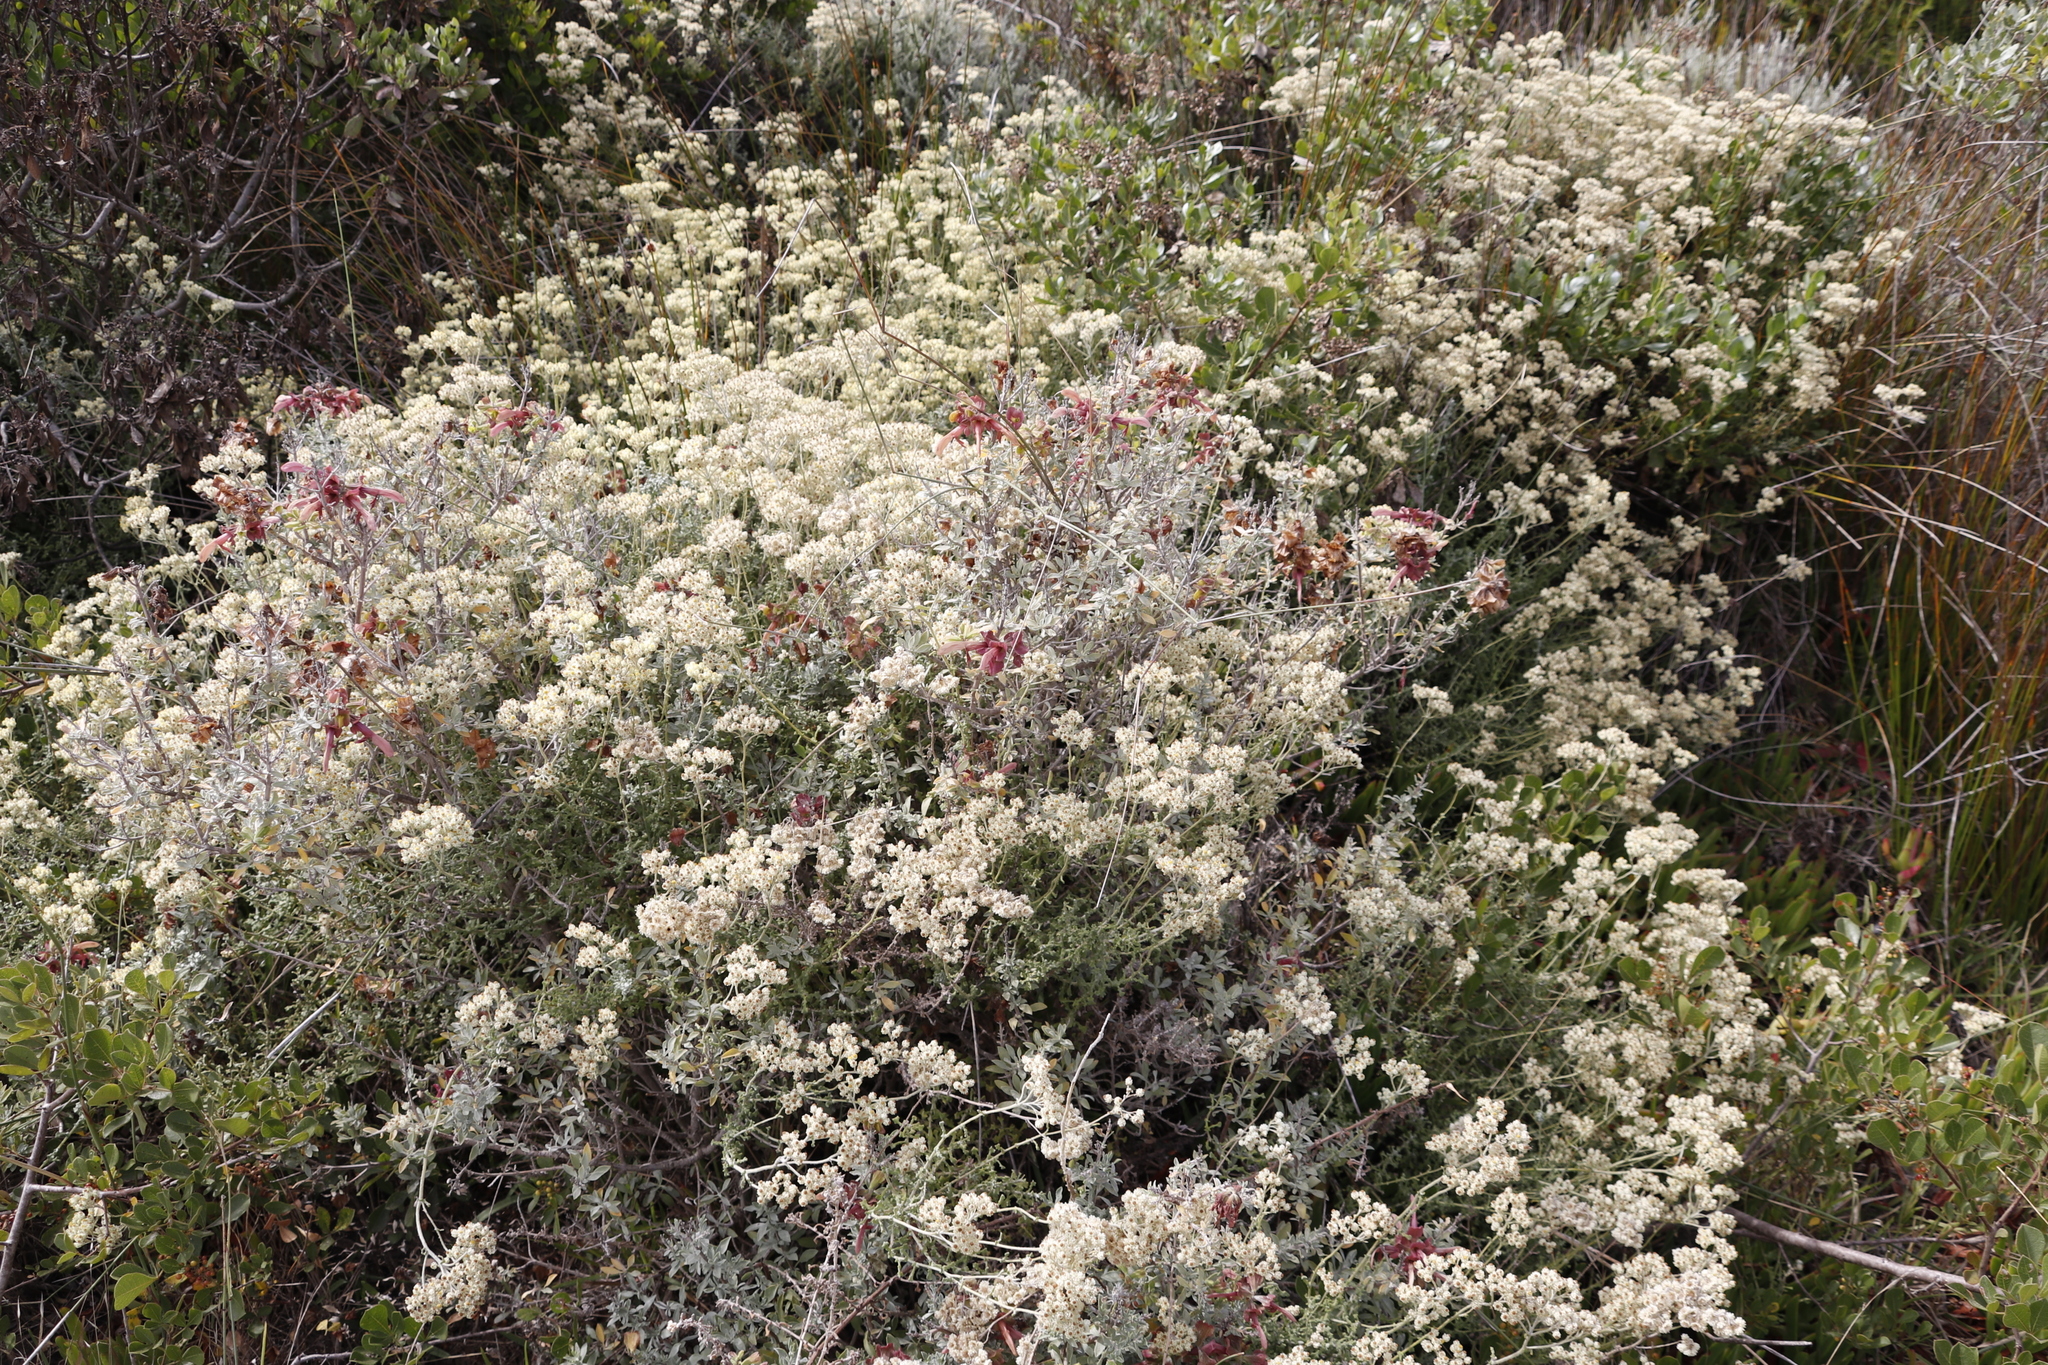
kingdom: Plantae
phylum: Tracheophyta
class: Magnoliopsida
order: Lamiales
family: Lamiaceae
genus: Salvia
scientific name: Salvia lanceolata
